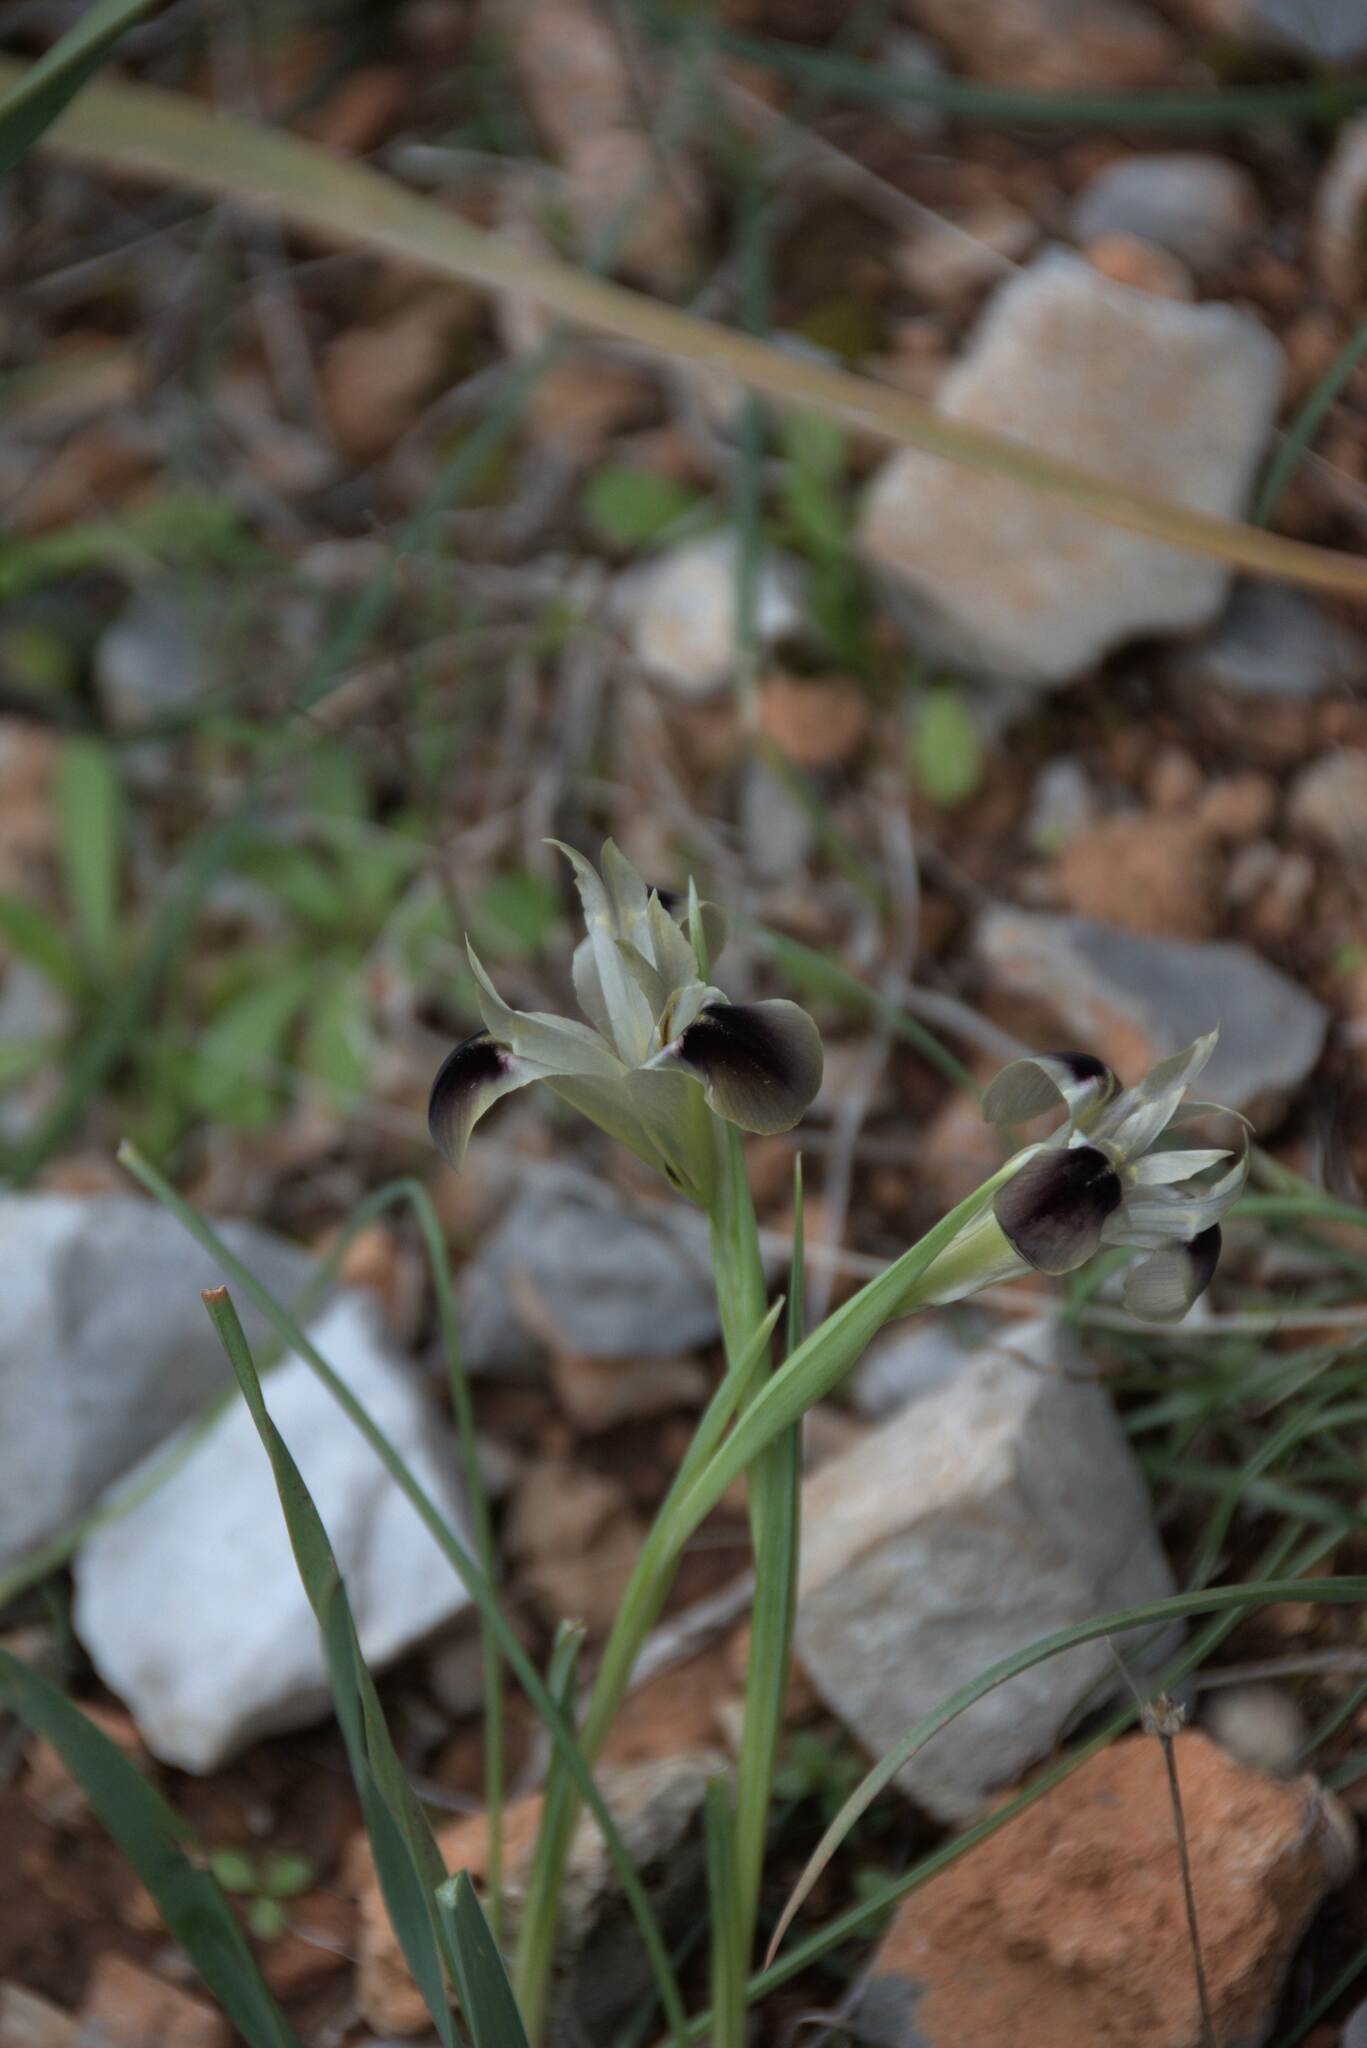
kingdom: Plantae
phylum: Tracheophyta
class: Liliopsida
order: Asparagales
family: Iridaceae
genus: Iris
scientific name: Iris tuberosa
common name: Snake's-head iris
